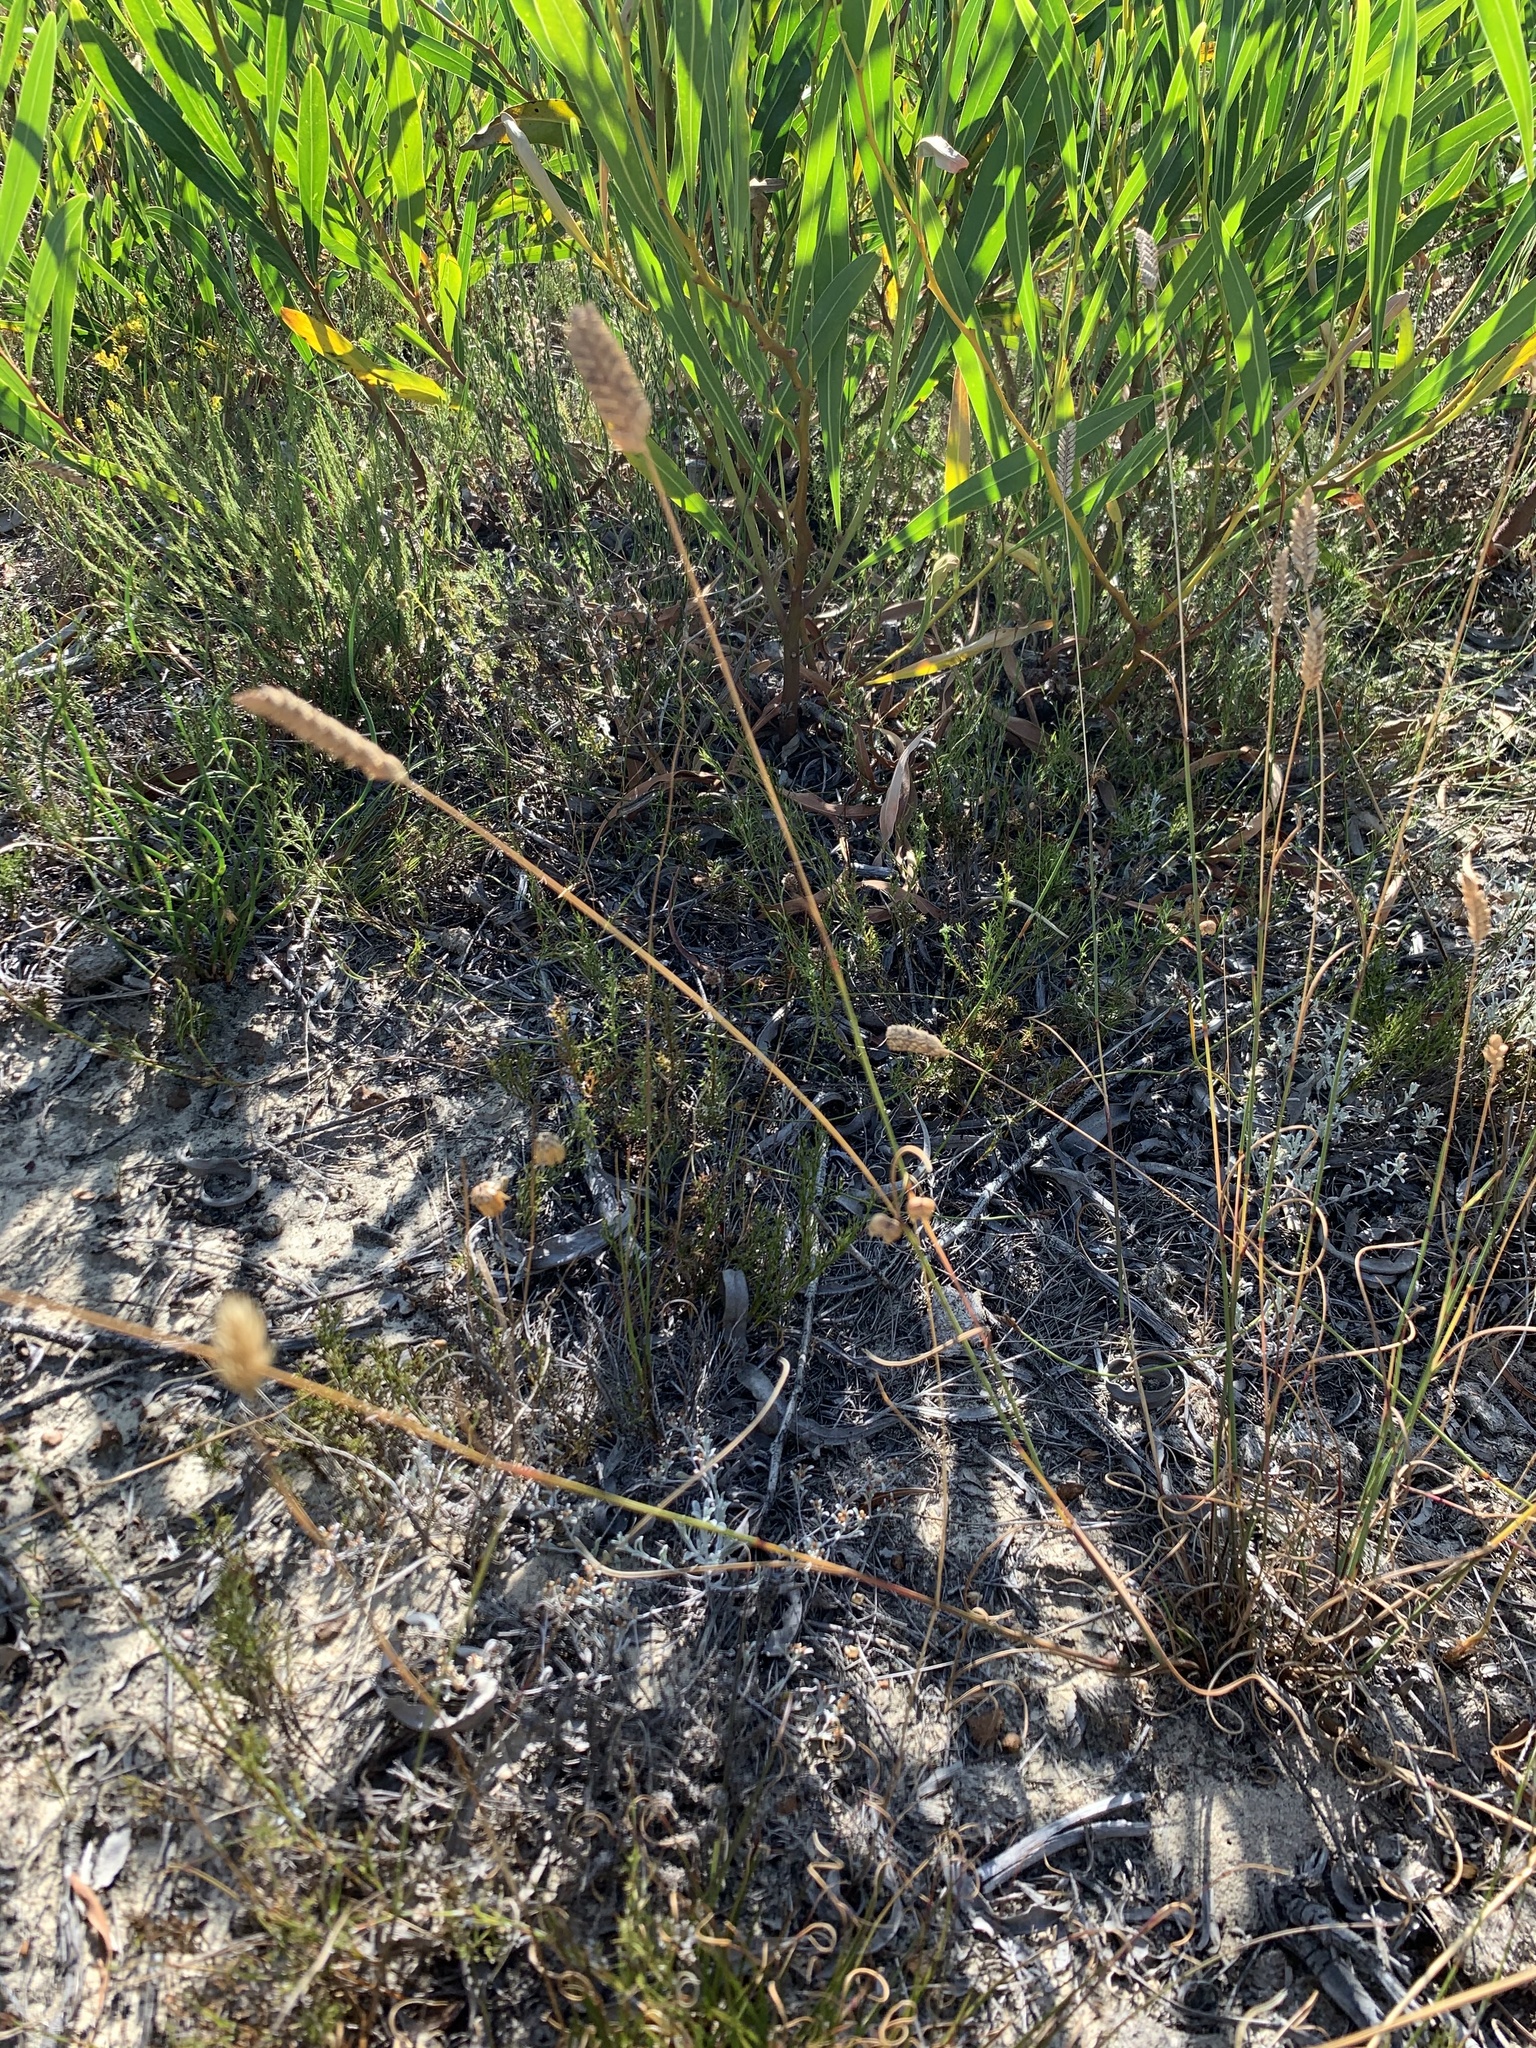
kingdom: Plantae
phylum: Tracheophyta
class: Liliopsida
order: Poales
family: Poaceae
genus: Tribolium
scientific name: Tribolium uniolae
